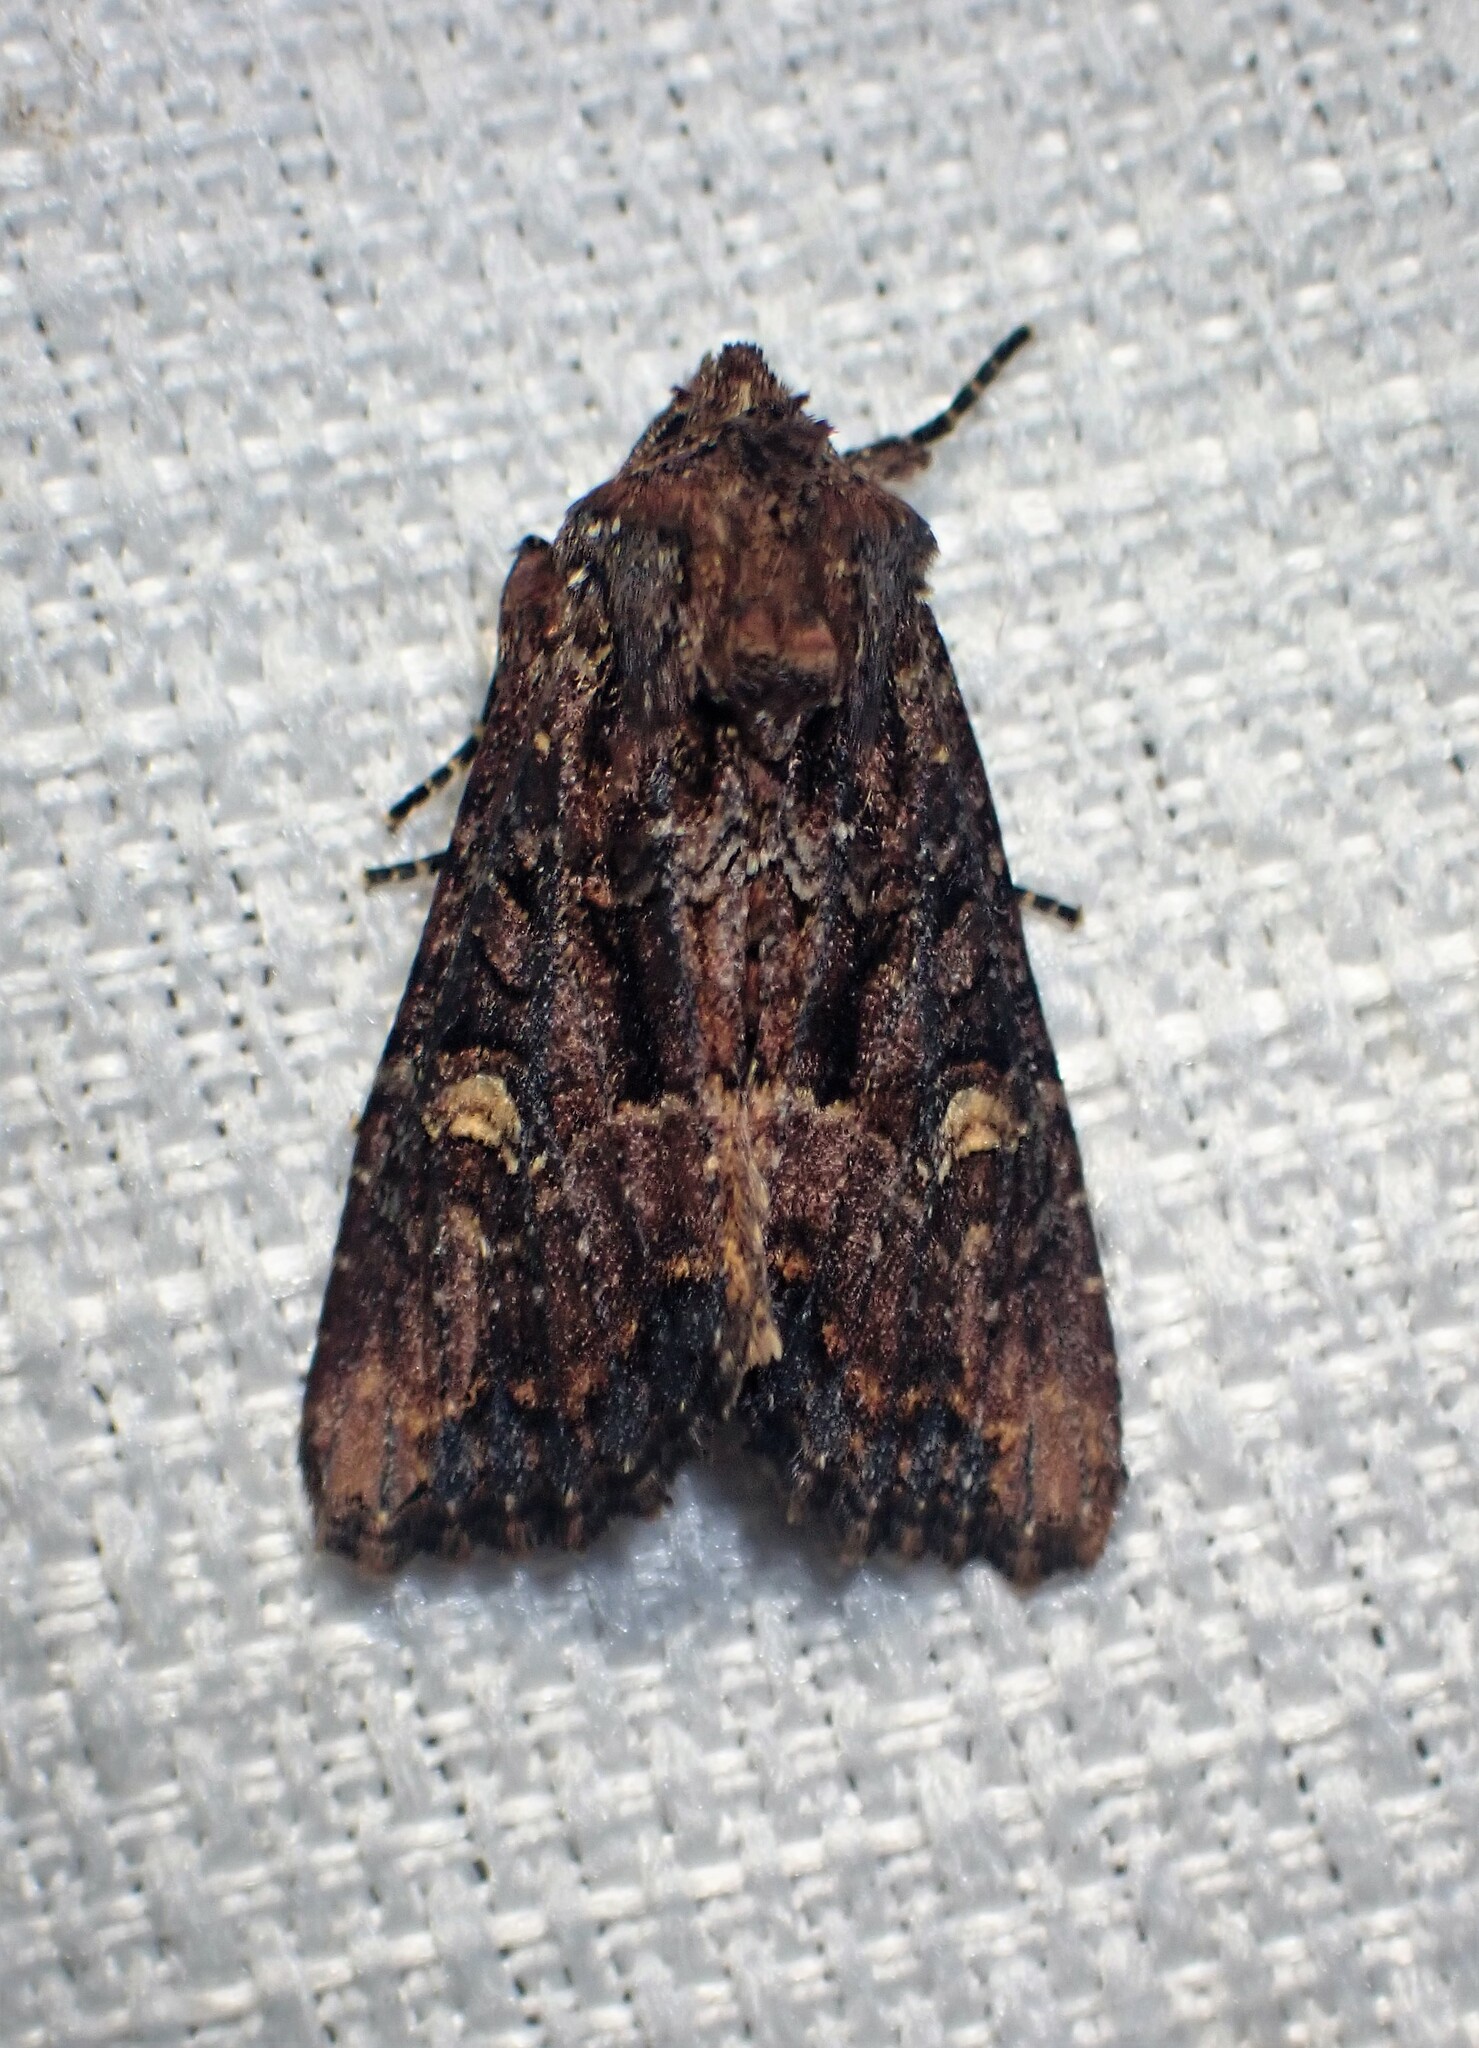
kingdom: Animalia
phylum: Arthropoda
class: Insecta
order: Lepidoptera
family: Noctuidae
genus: Mesapamea
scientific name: Mesapamea storai
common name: Owlet moth
